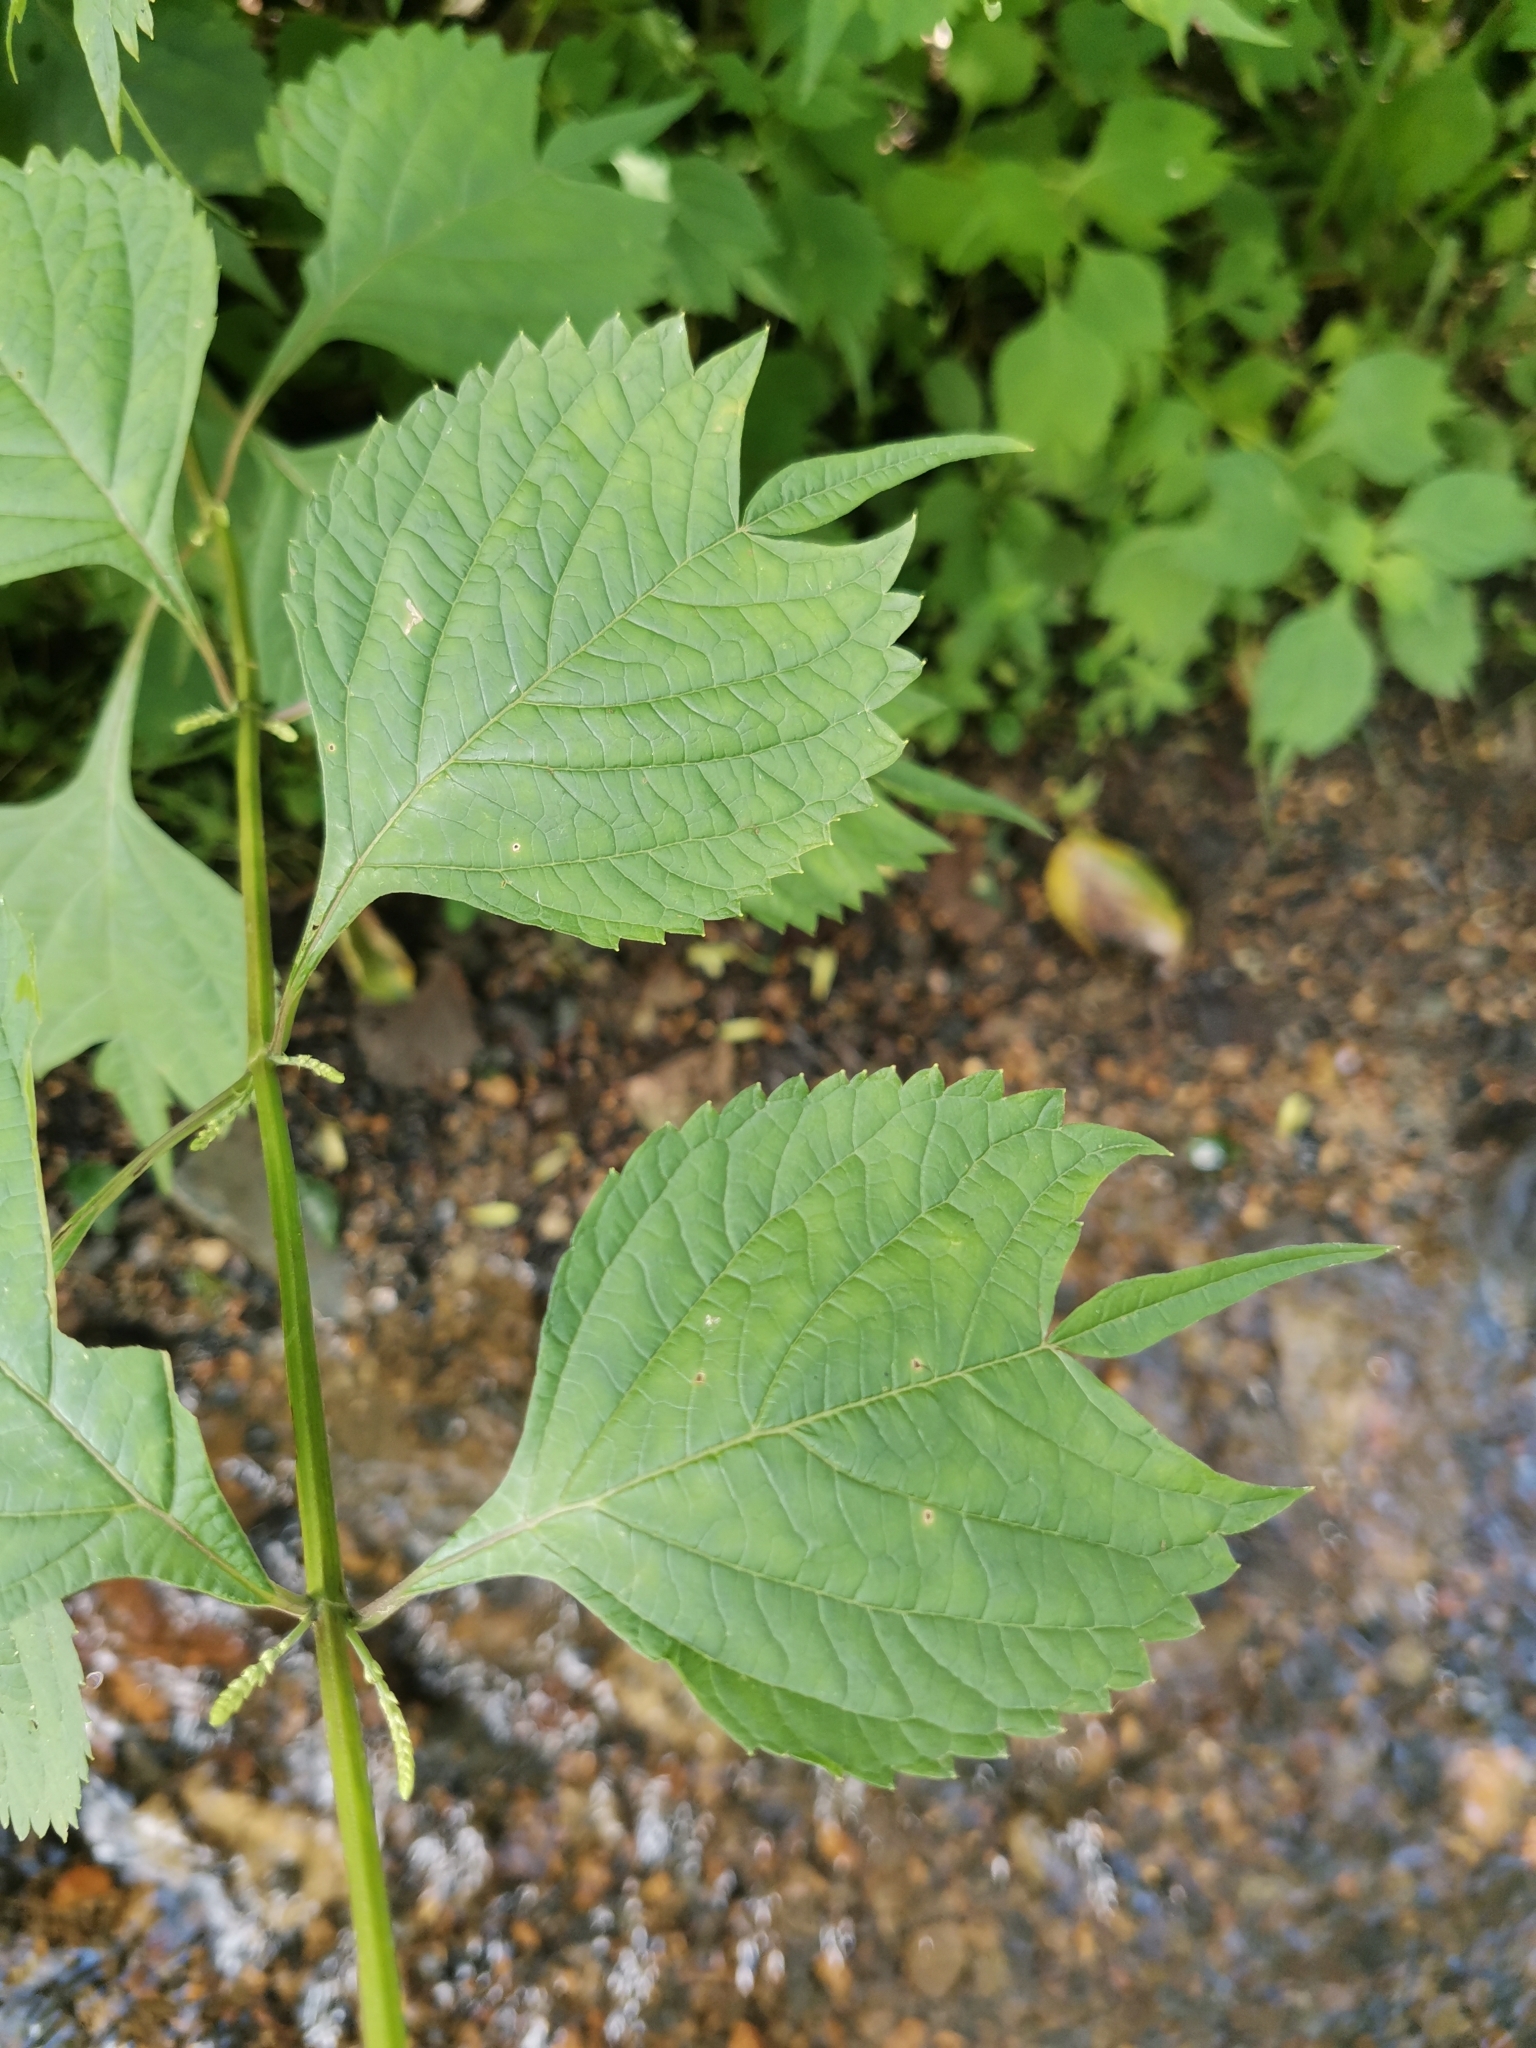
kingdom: Plantae
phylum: Tracheophyta
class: Magnoliopsida
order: Lamiales
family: Lamiaceae
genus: Isodon
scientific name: Isodon excisus
